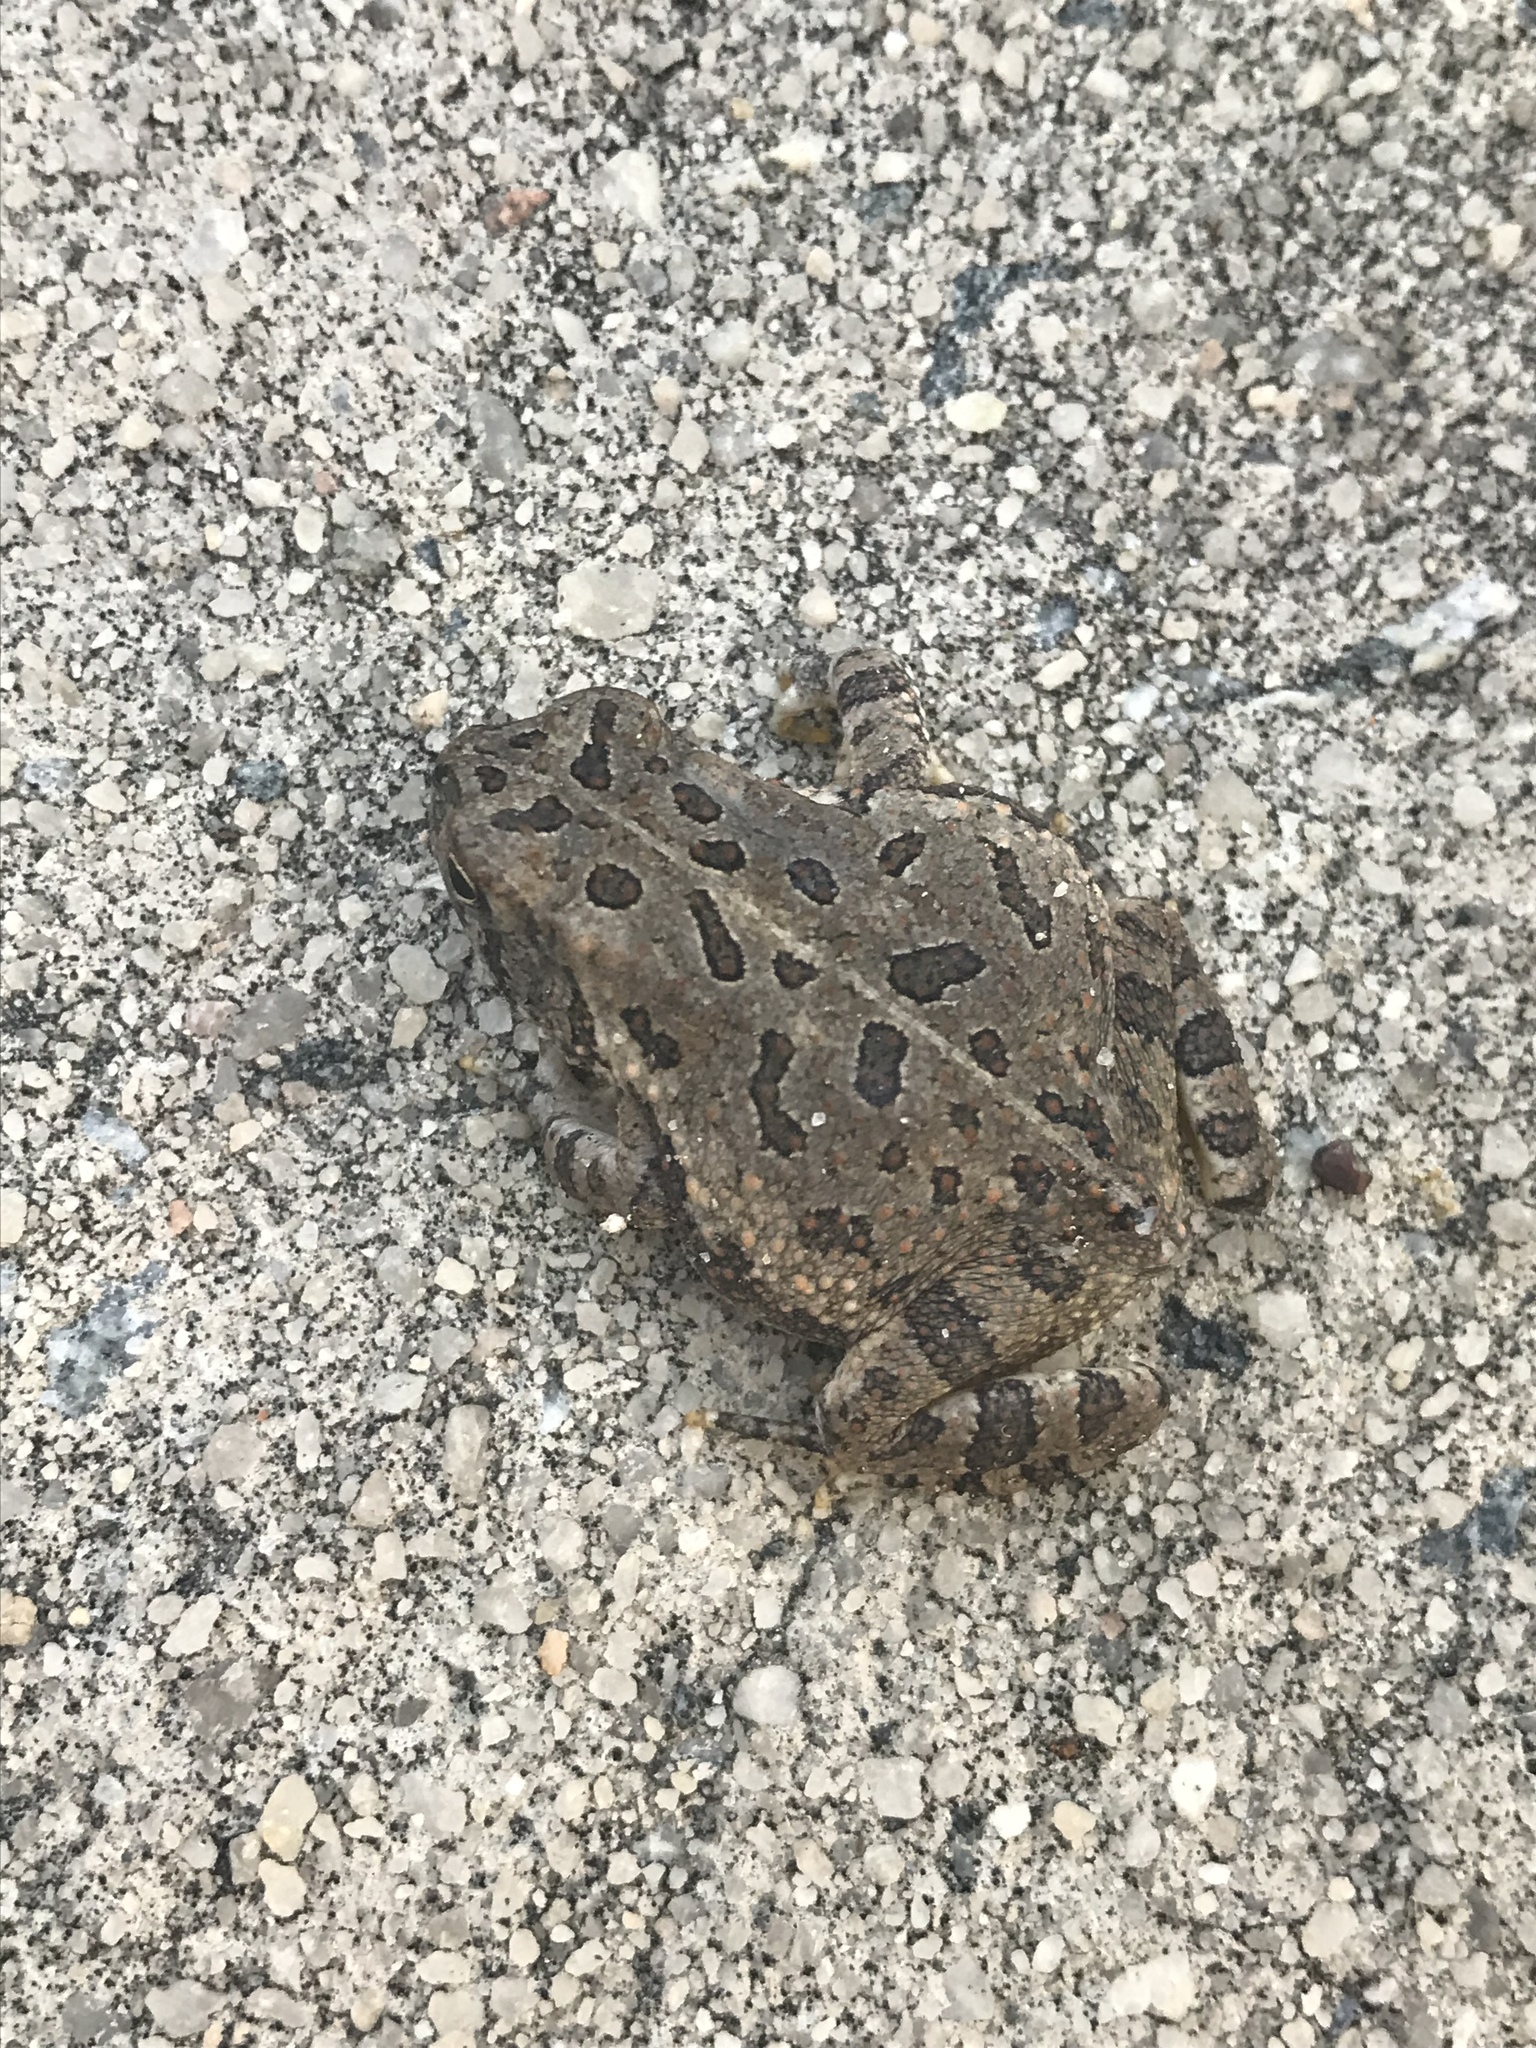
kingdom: Animalia
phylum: Chordata
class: Amphibia
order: Anura
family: Bufonidae
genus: Anaxyrus
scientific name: Anaxyrus fowleri
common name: Fowler's toad
